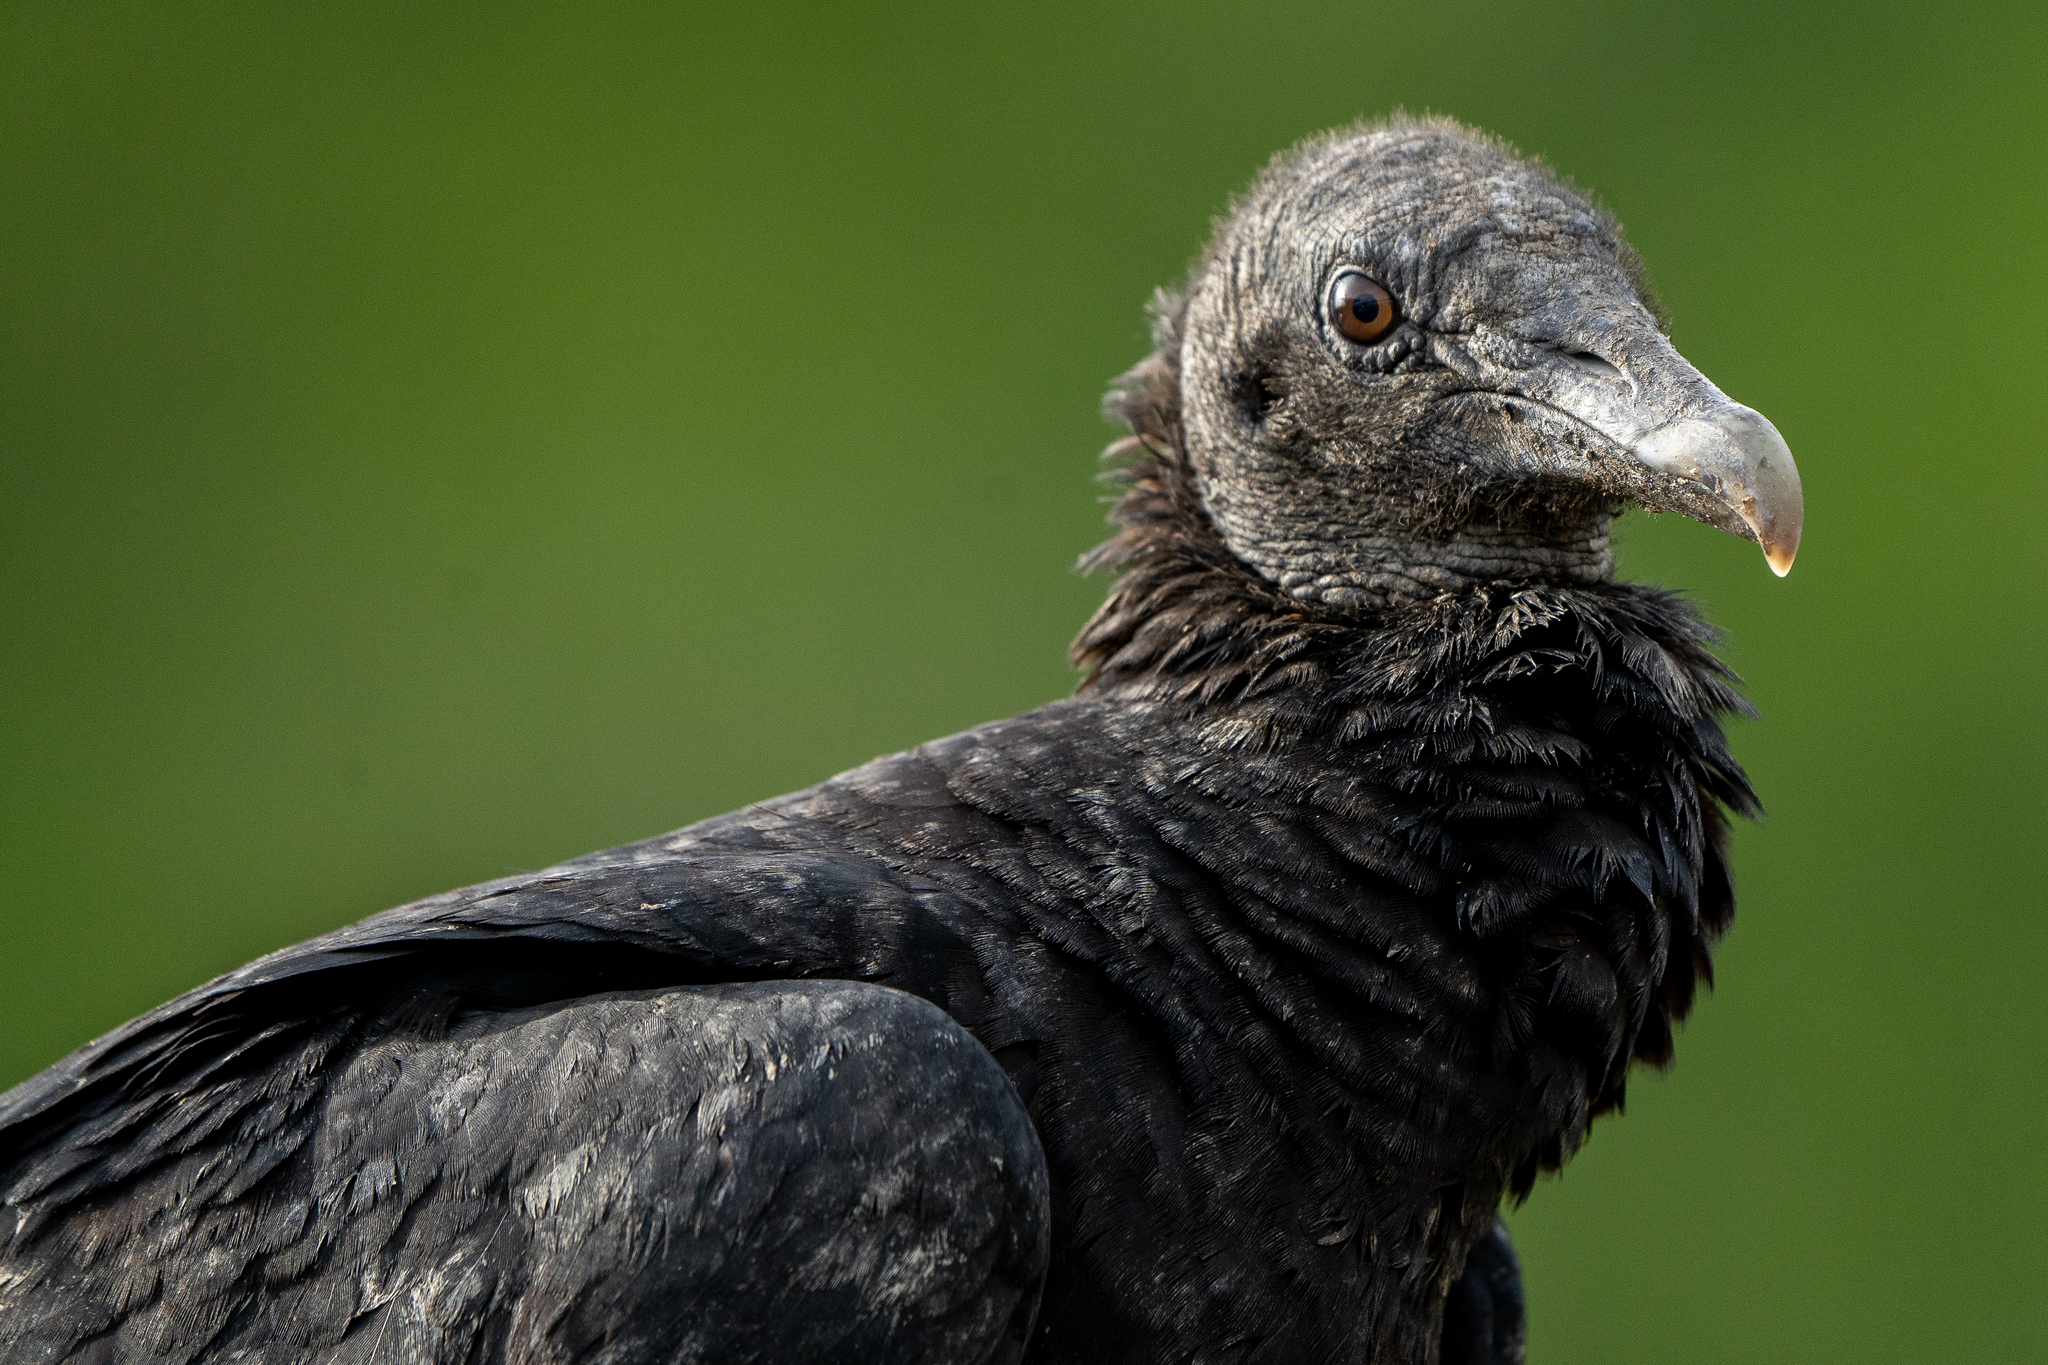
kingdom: Animalia
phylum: Chordata
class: Aves
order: Accipitriformes
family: Cathartidae
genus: Coragyps
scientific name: Coragyps atratus
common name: Black vulture
